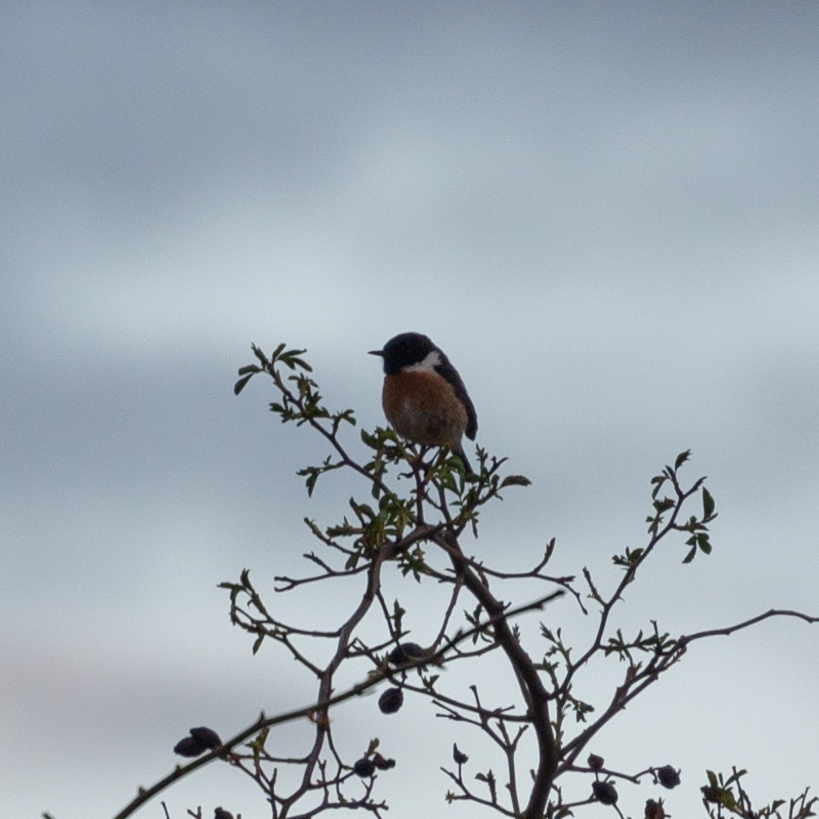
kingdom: Animalia
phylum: Chordata
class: Aves
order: Passeriformes
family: Muscicapidae
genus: Saxicola
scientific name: Saxicola rubicola
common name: European stonechat
